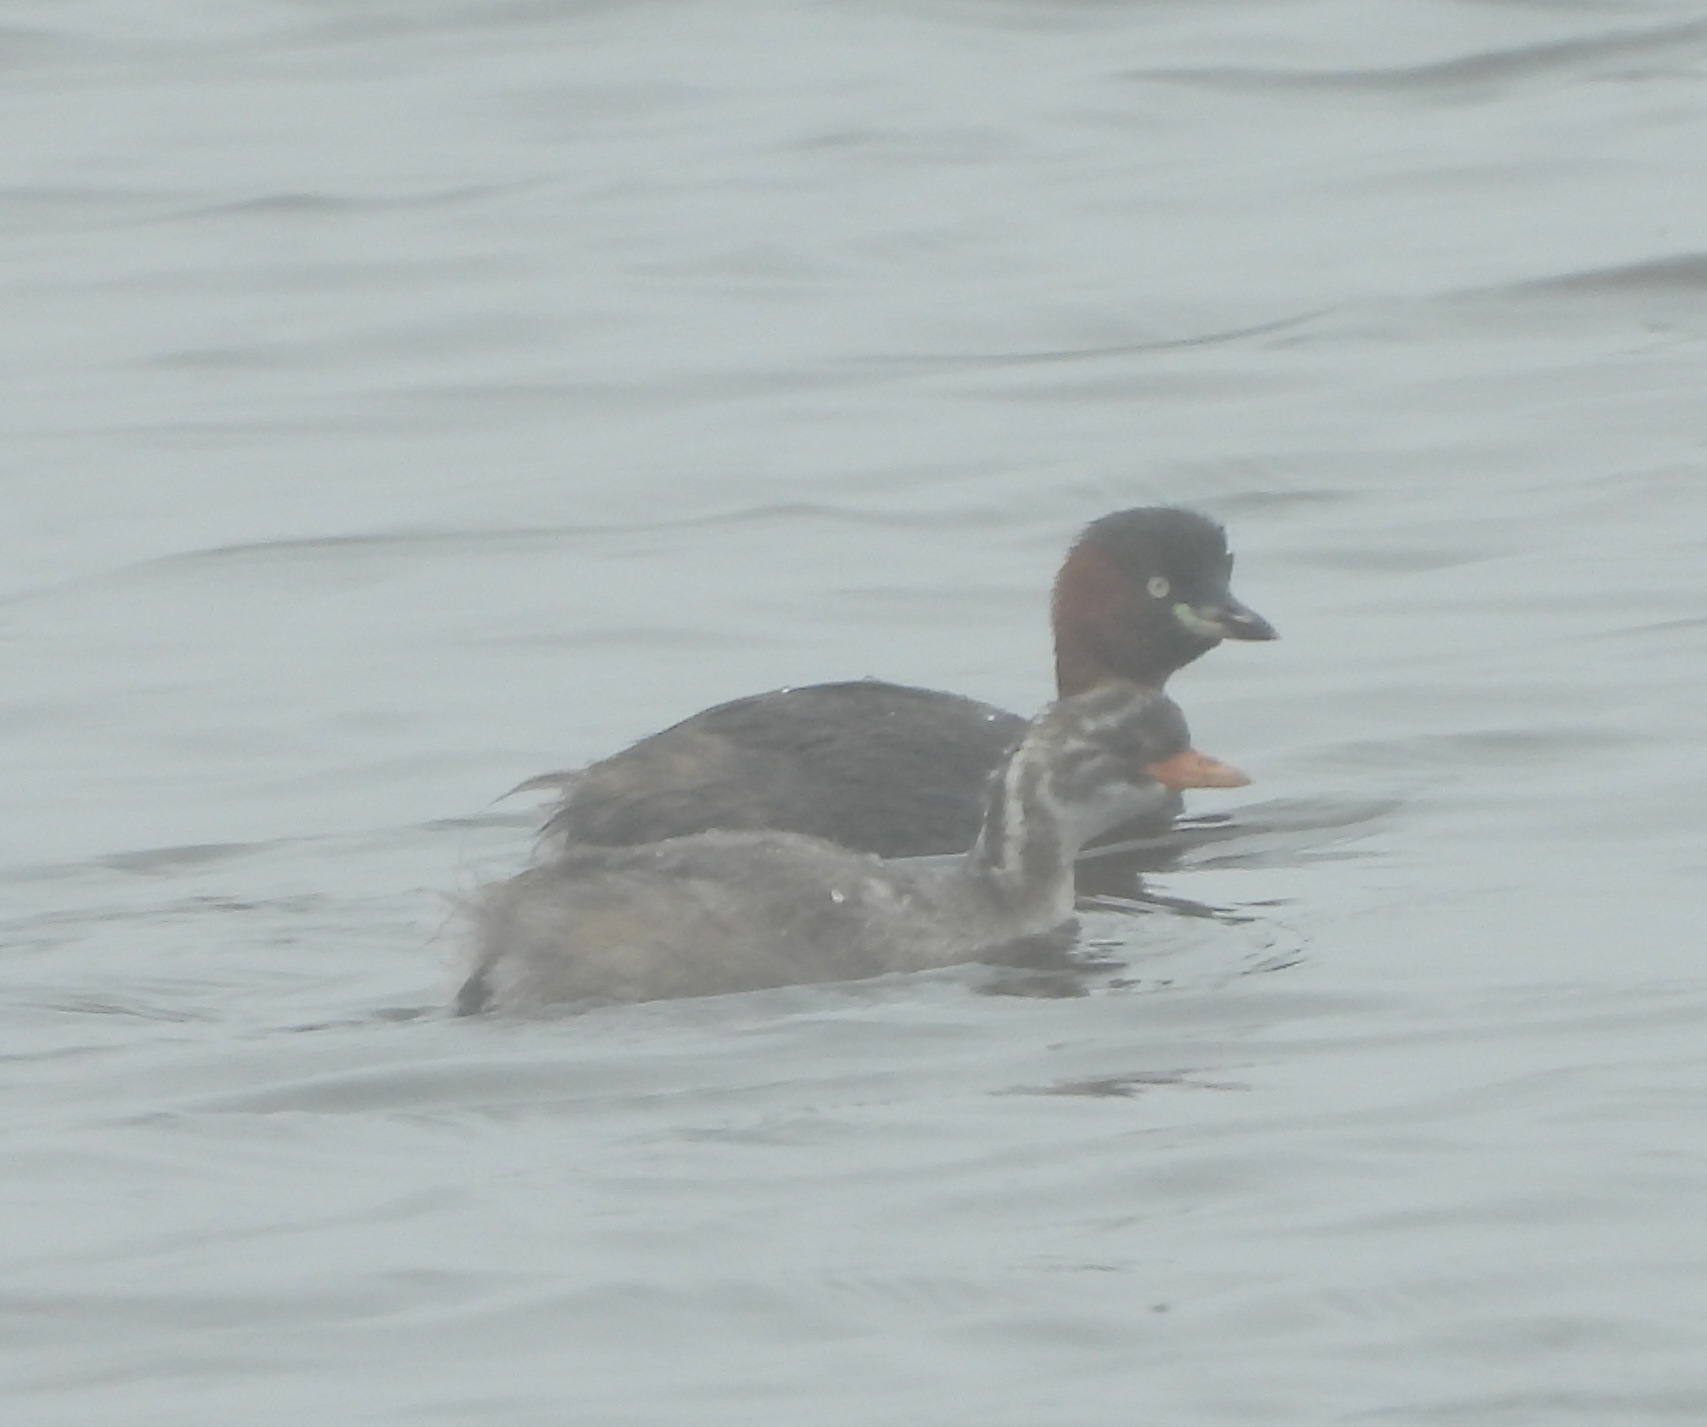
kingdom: Animalia
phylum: Chordata
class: Aves
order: Podicipediformes
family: Podicipedidae
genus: Tachybaptus
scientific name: Tachybaptus ruficollis
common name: Little grebe
